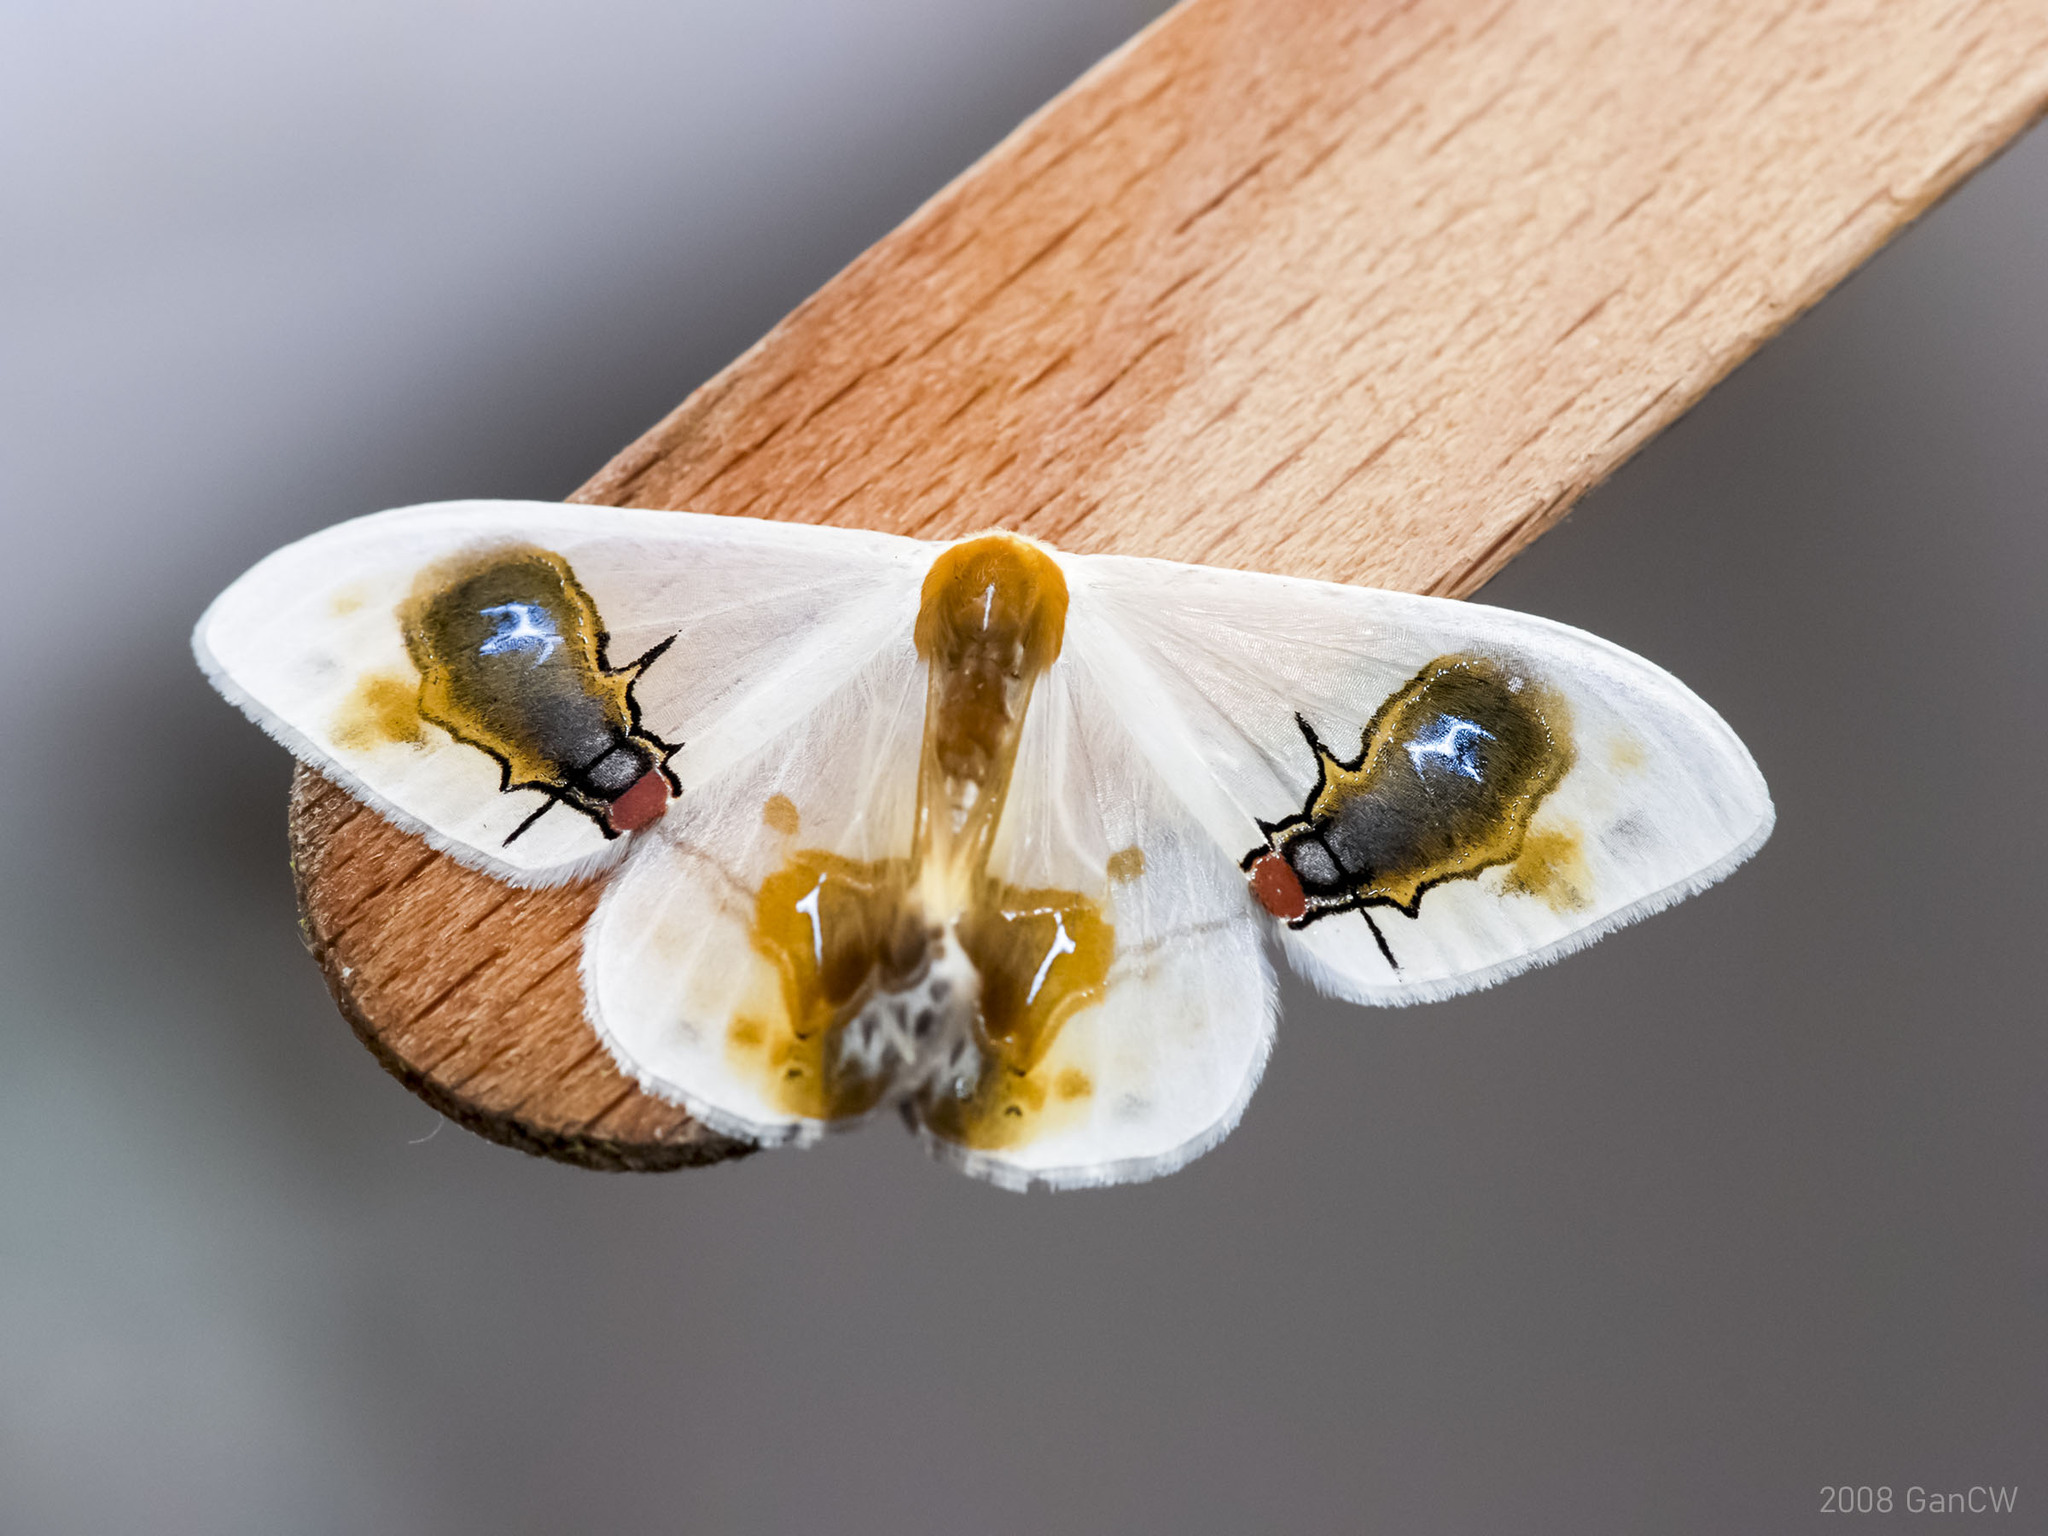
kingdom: Animalia
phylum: Arthropoda
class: Insecta
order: Lepidoptera
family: Drepanidae
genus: Macrocilix
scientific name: Macrocilix maia
